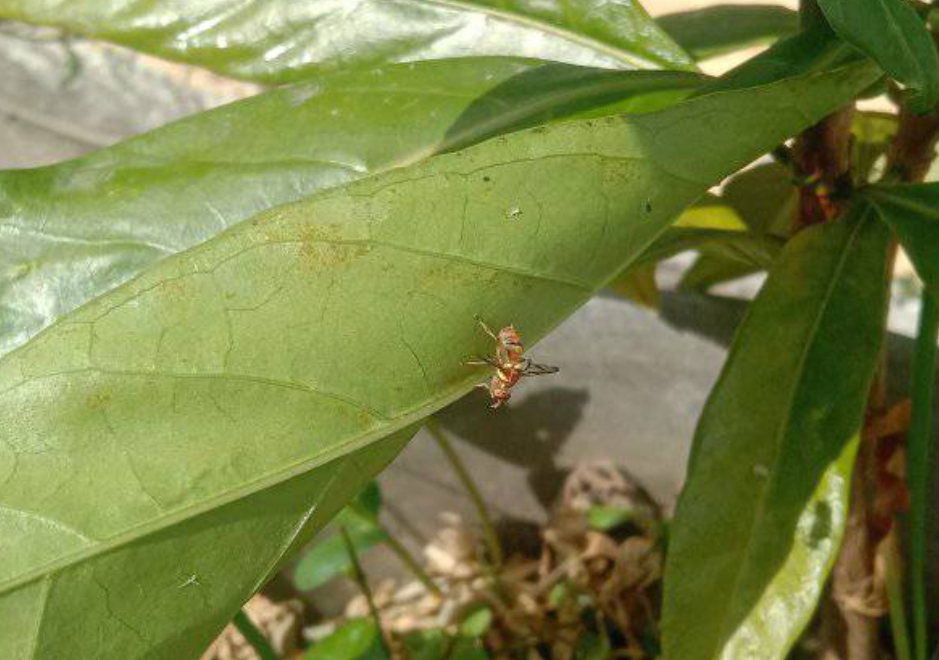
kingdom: Animalia
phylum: Arthropoda
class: Insecta
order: Diptera
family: Tephritidae
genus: Bactrocera
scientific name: Bactrocera cucurbitae
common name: Melon fly
